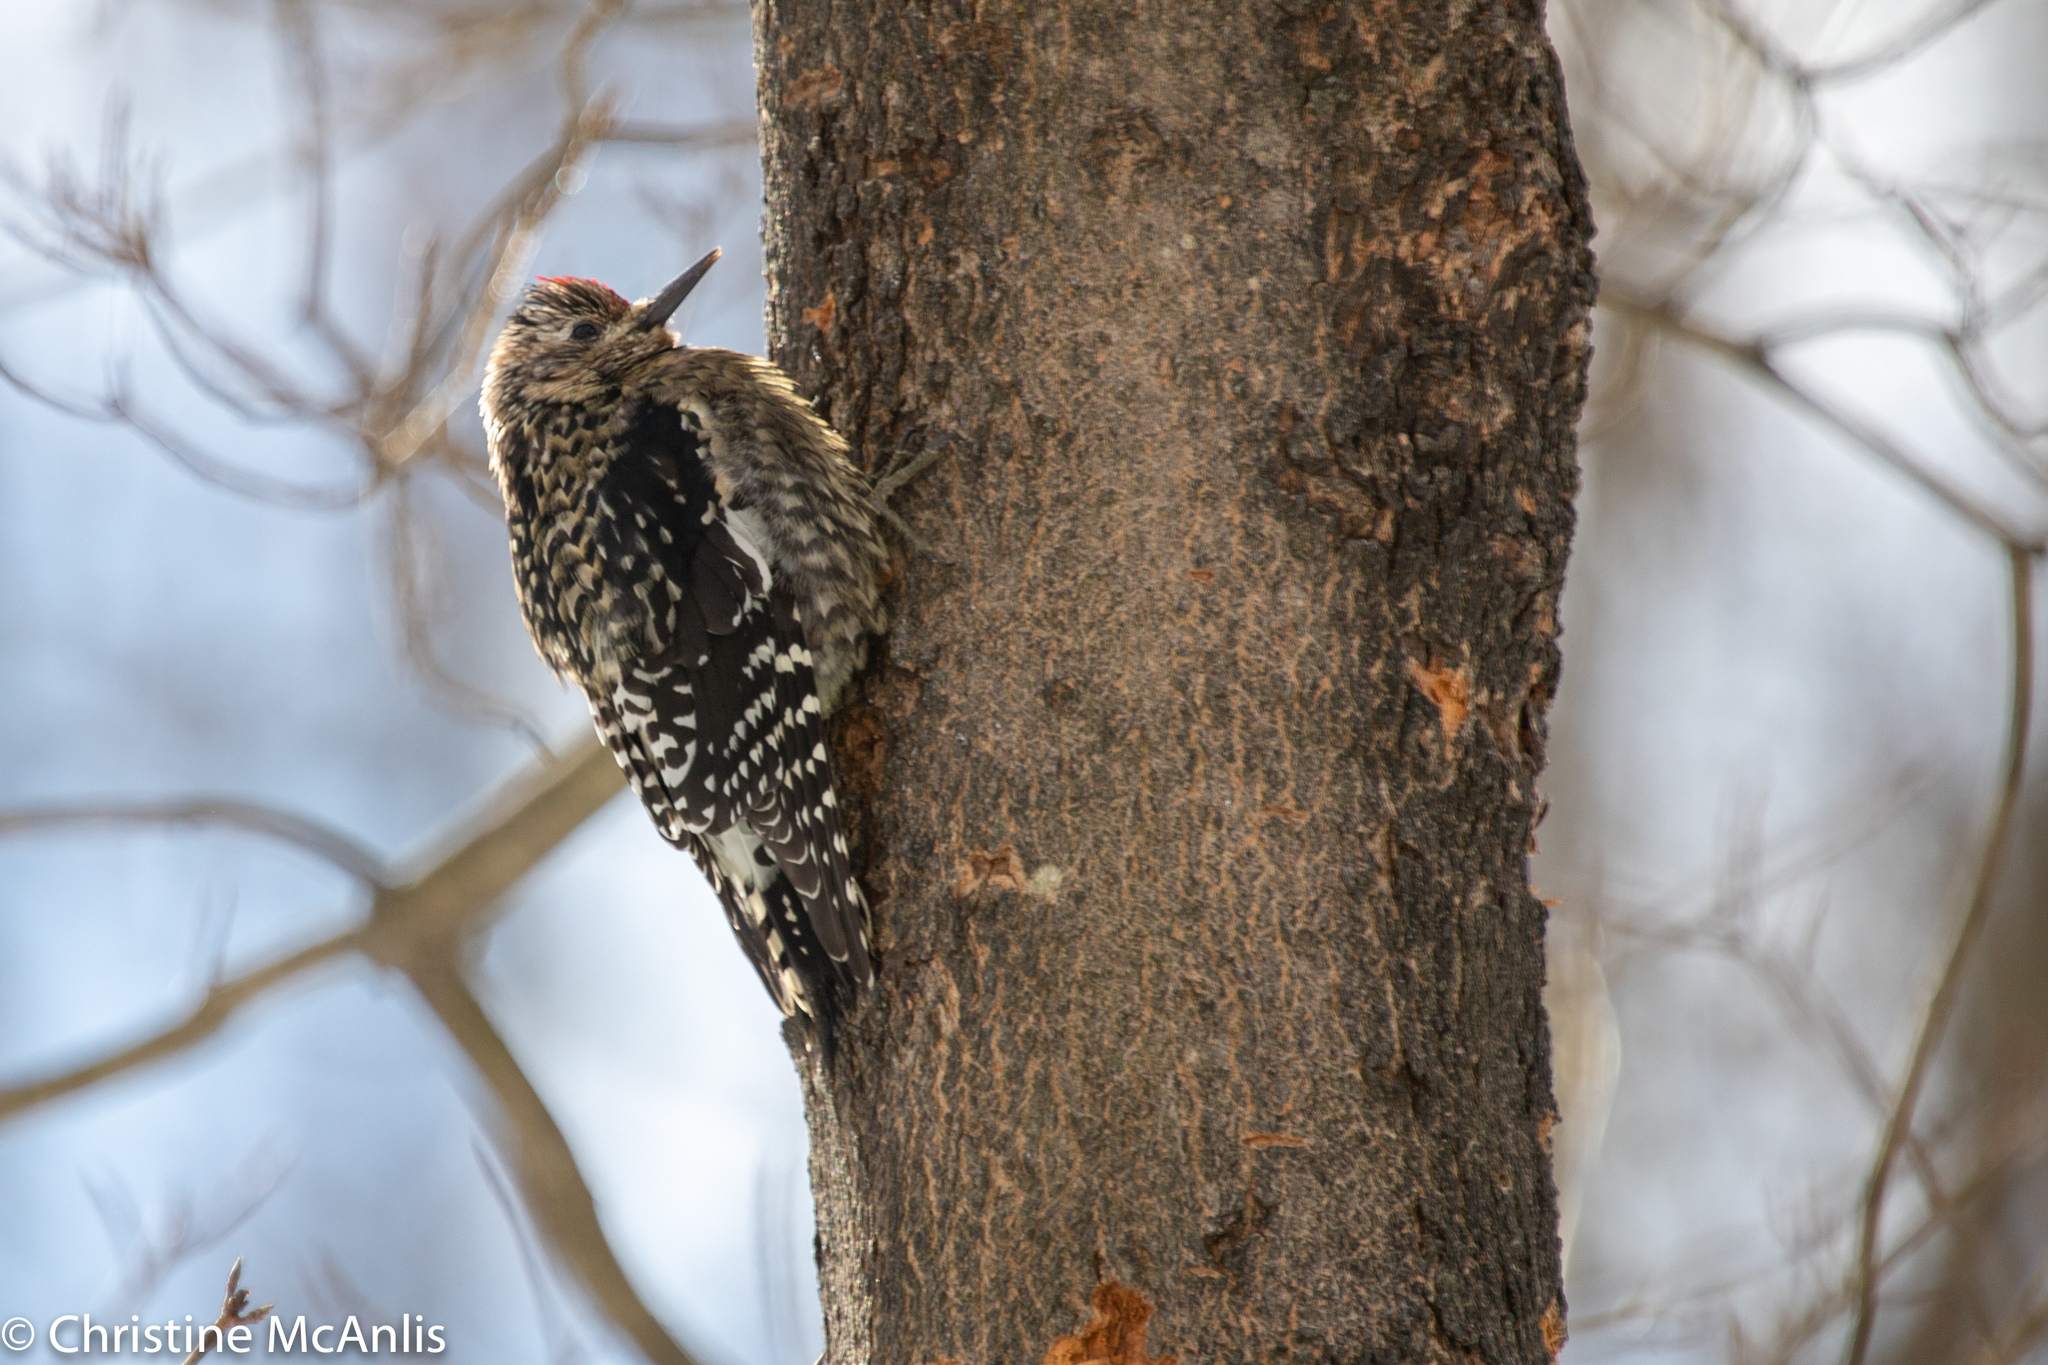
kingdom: Animalia
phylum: Chordata
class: Aves
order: Piciformes
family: Picidae
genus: Sphyrapicus
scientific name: Sphyrapicus varius
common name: Yellow-bellied sapsucker
